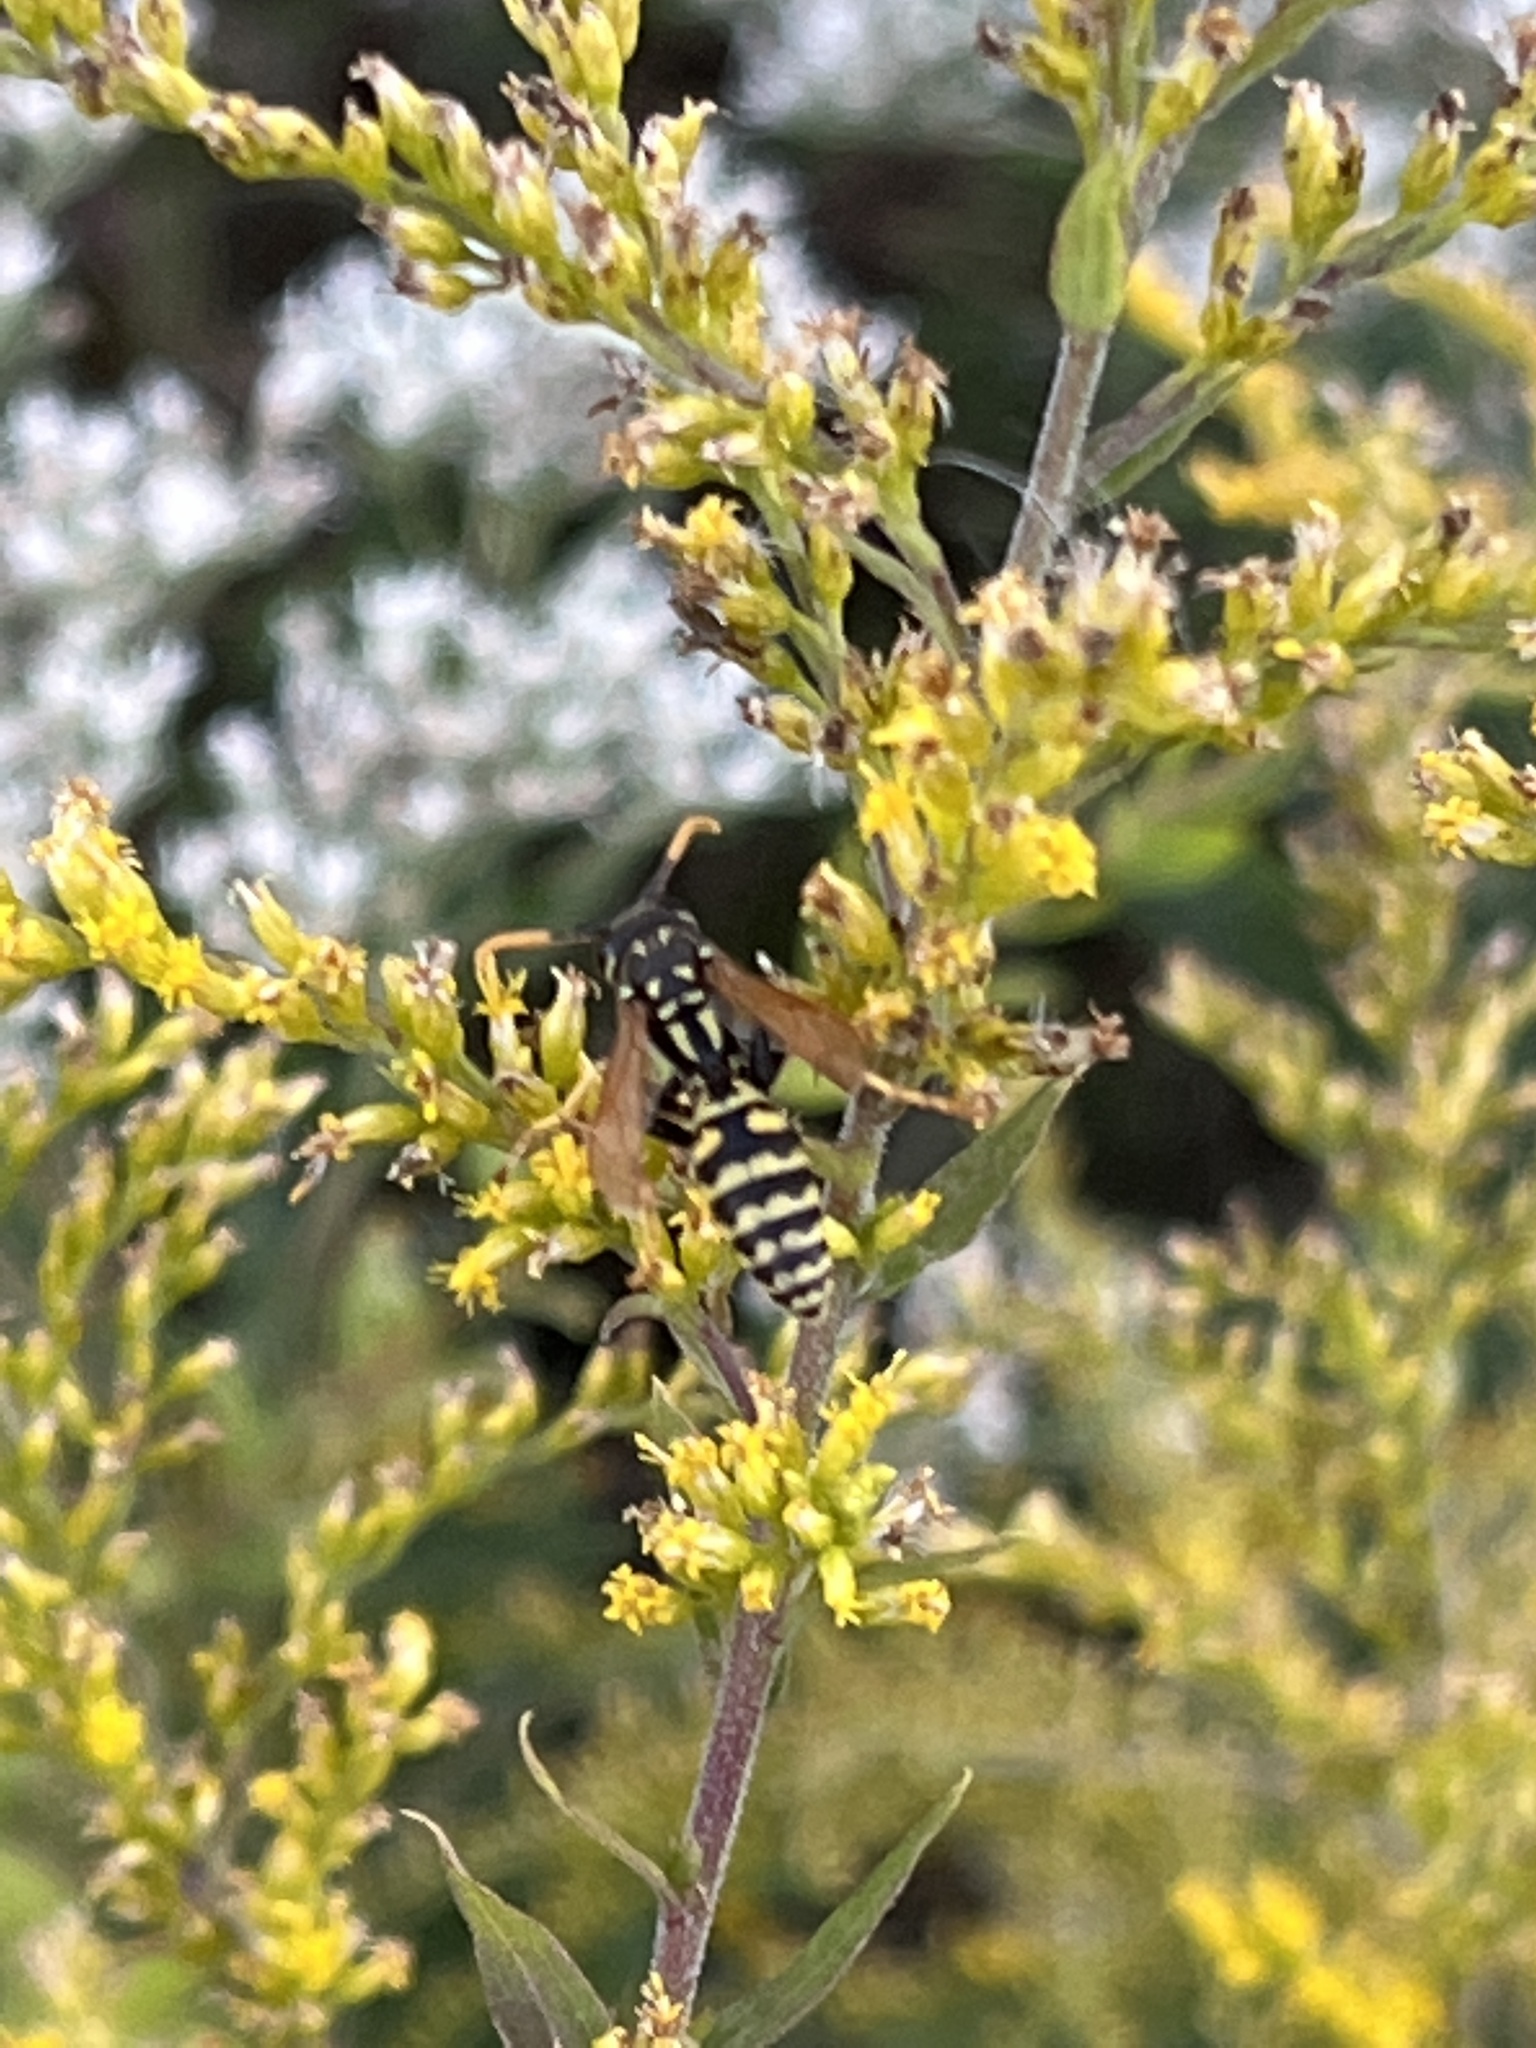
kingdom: Animalia
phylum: Arthropoda
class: Insecta
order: Hymenoptera
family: Eumenidae
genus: Polistes
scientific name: Polistes dominula
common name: Paper wasp
